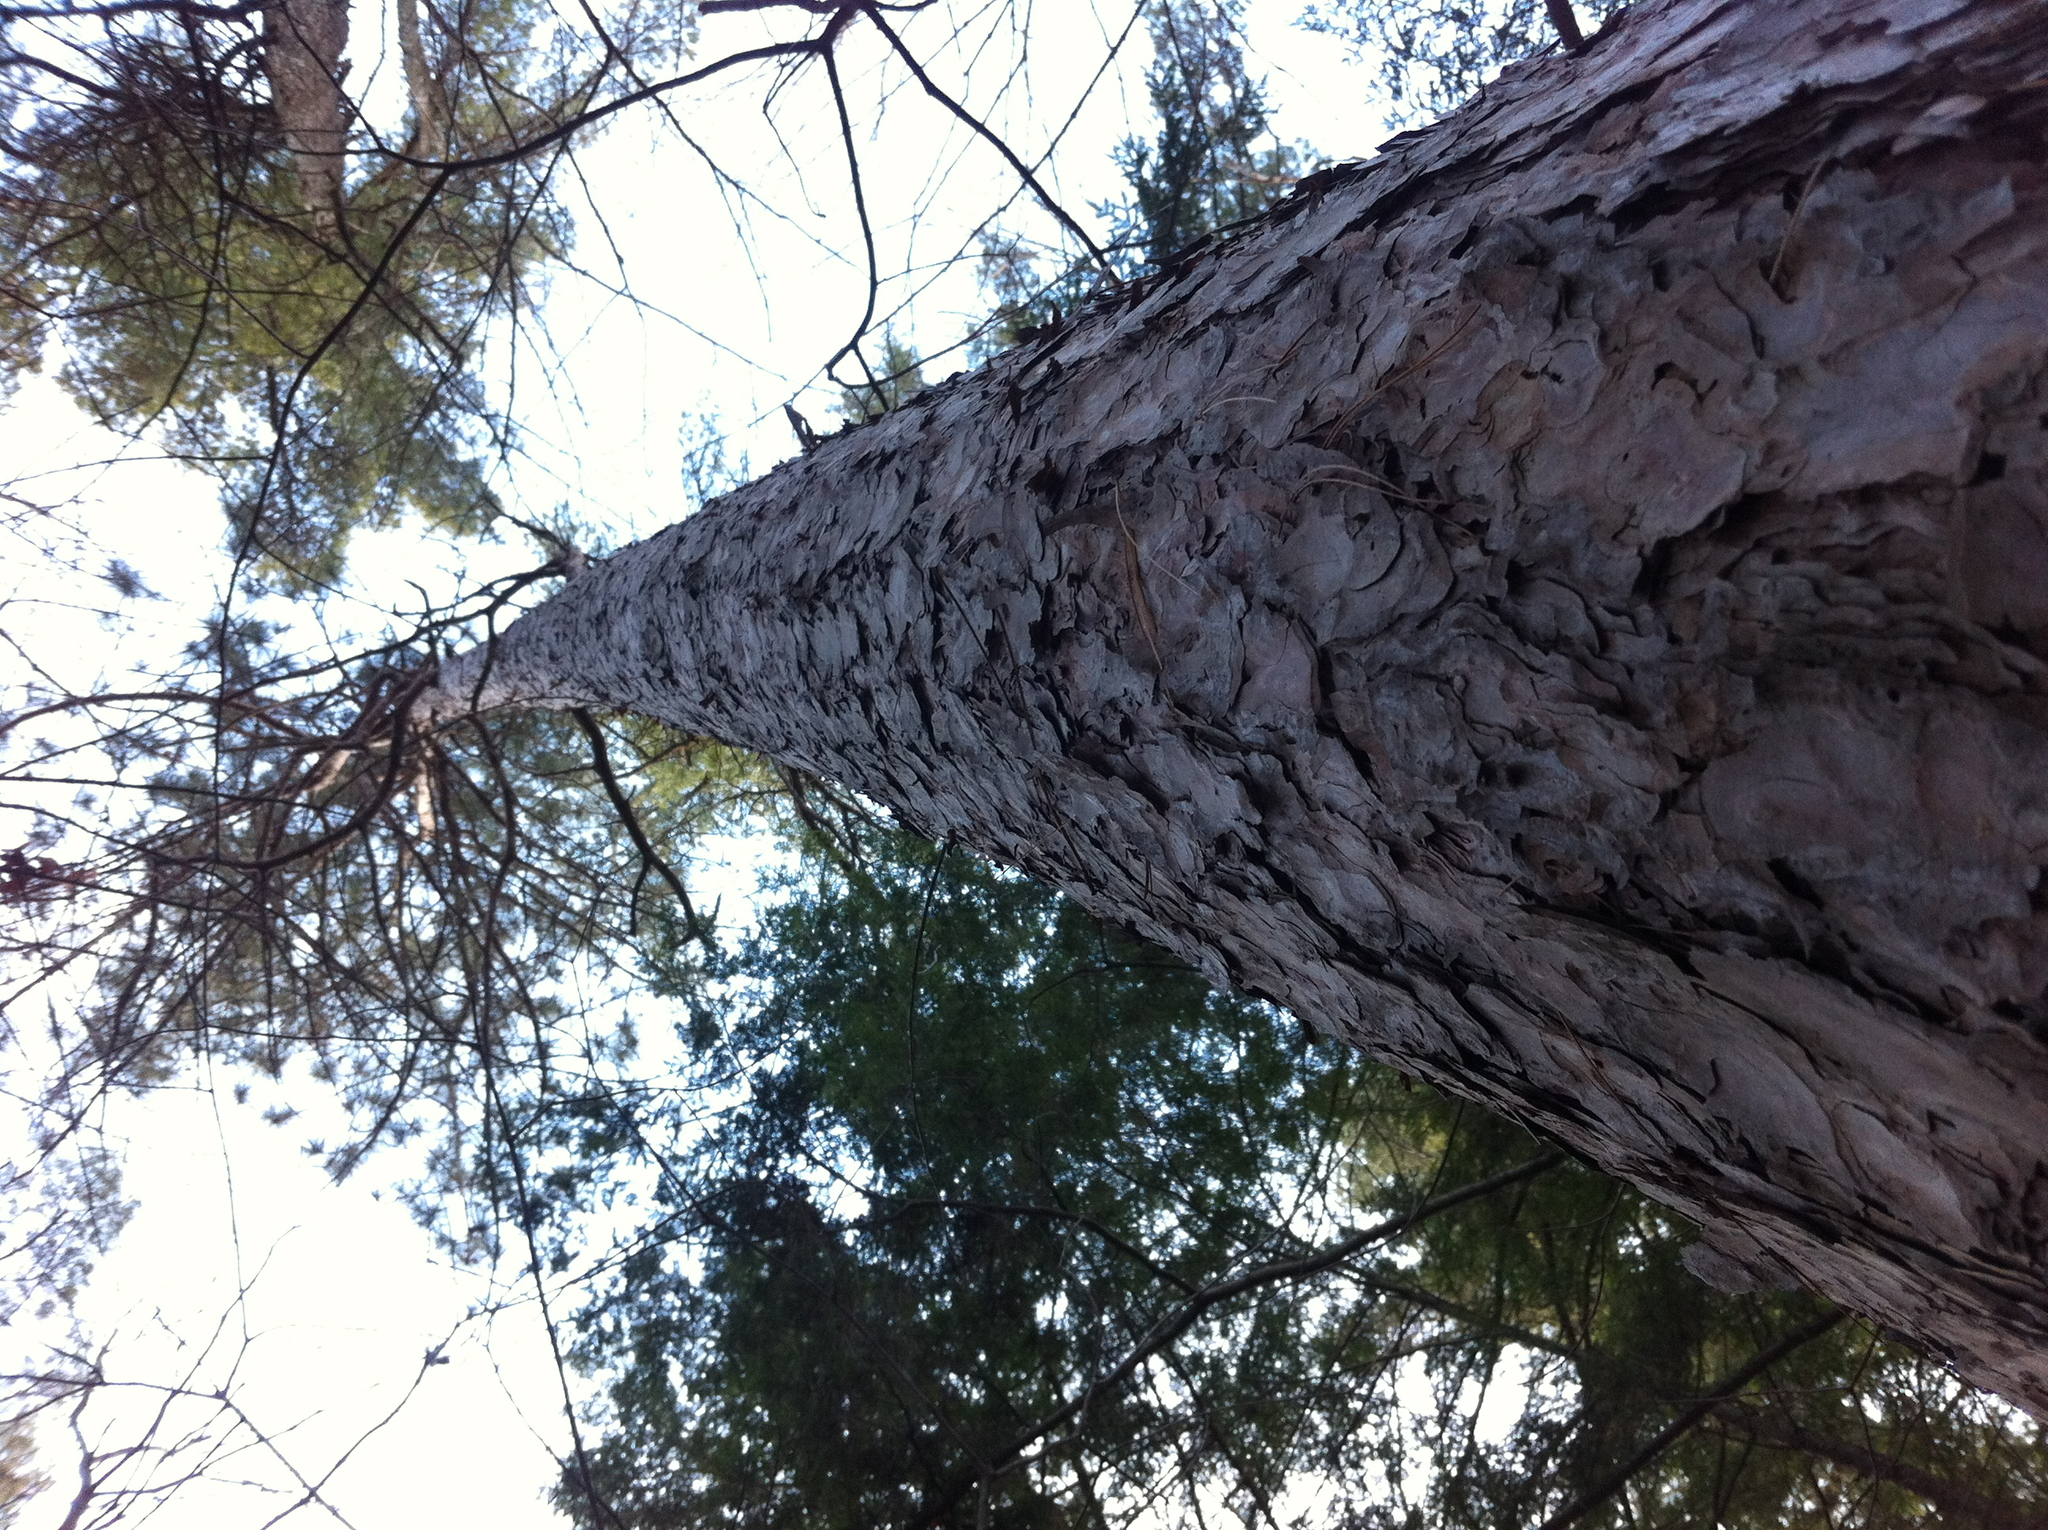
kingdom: Plantae
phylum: Tracheophyta
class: Pinopsida
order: Pinales
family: Pinaceae
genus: Pinus
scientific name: Pinus resinosa
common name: Norway pine
